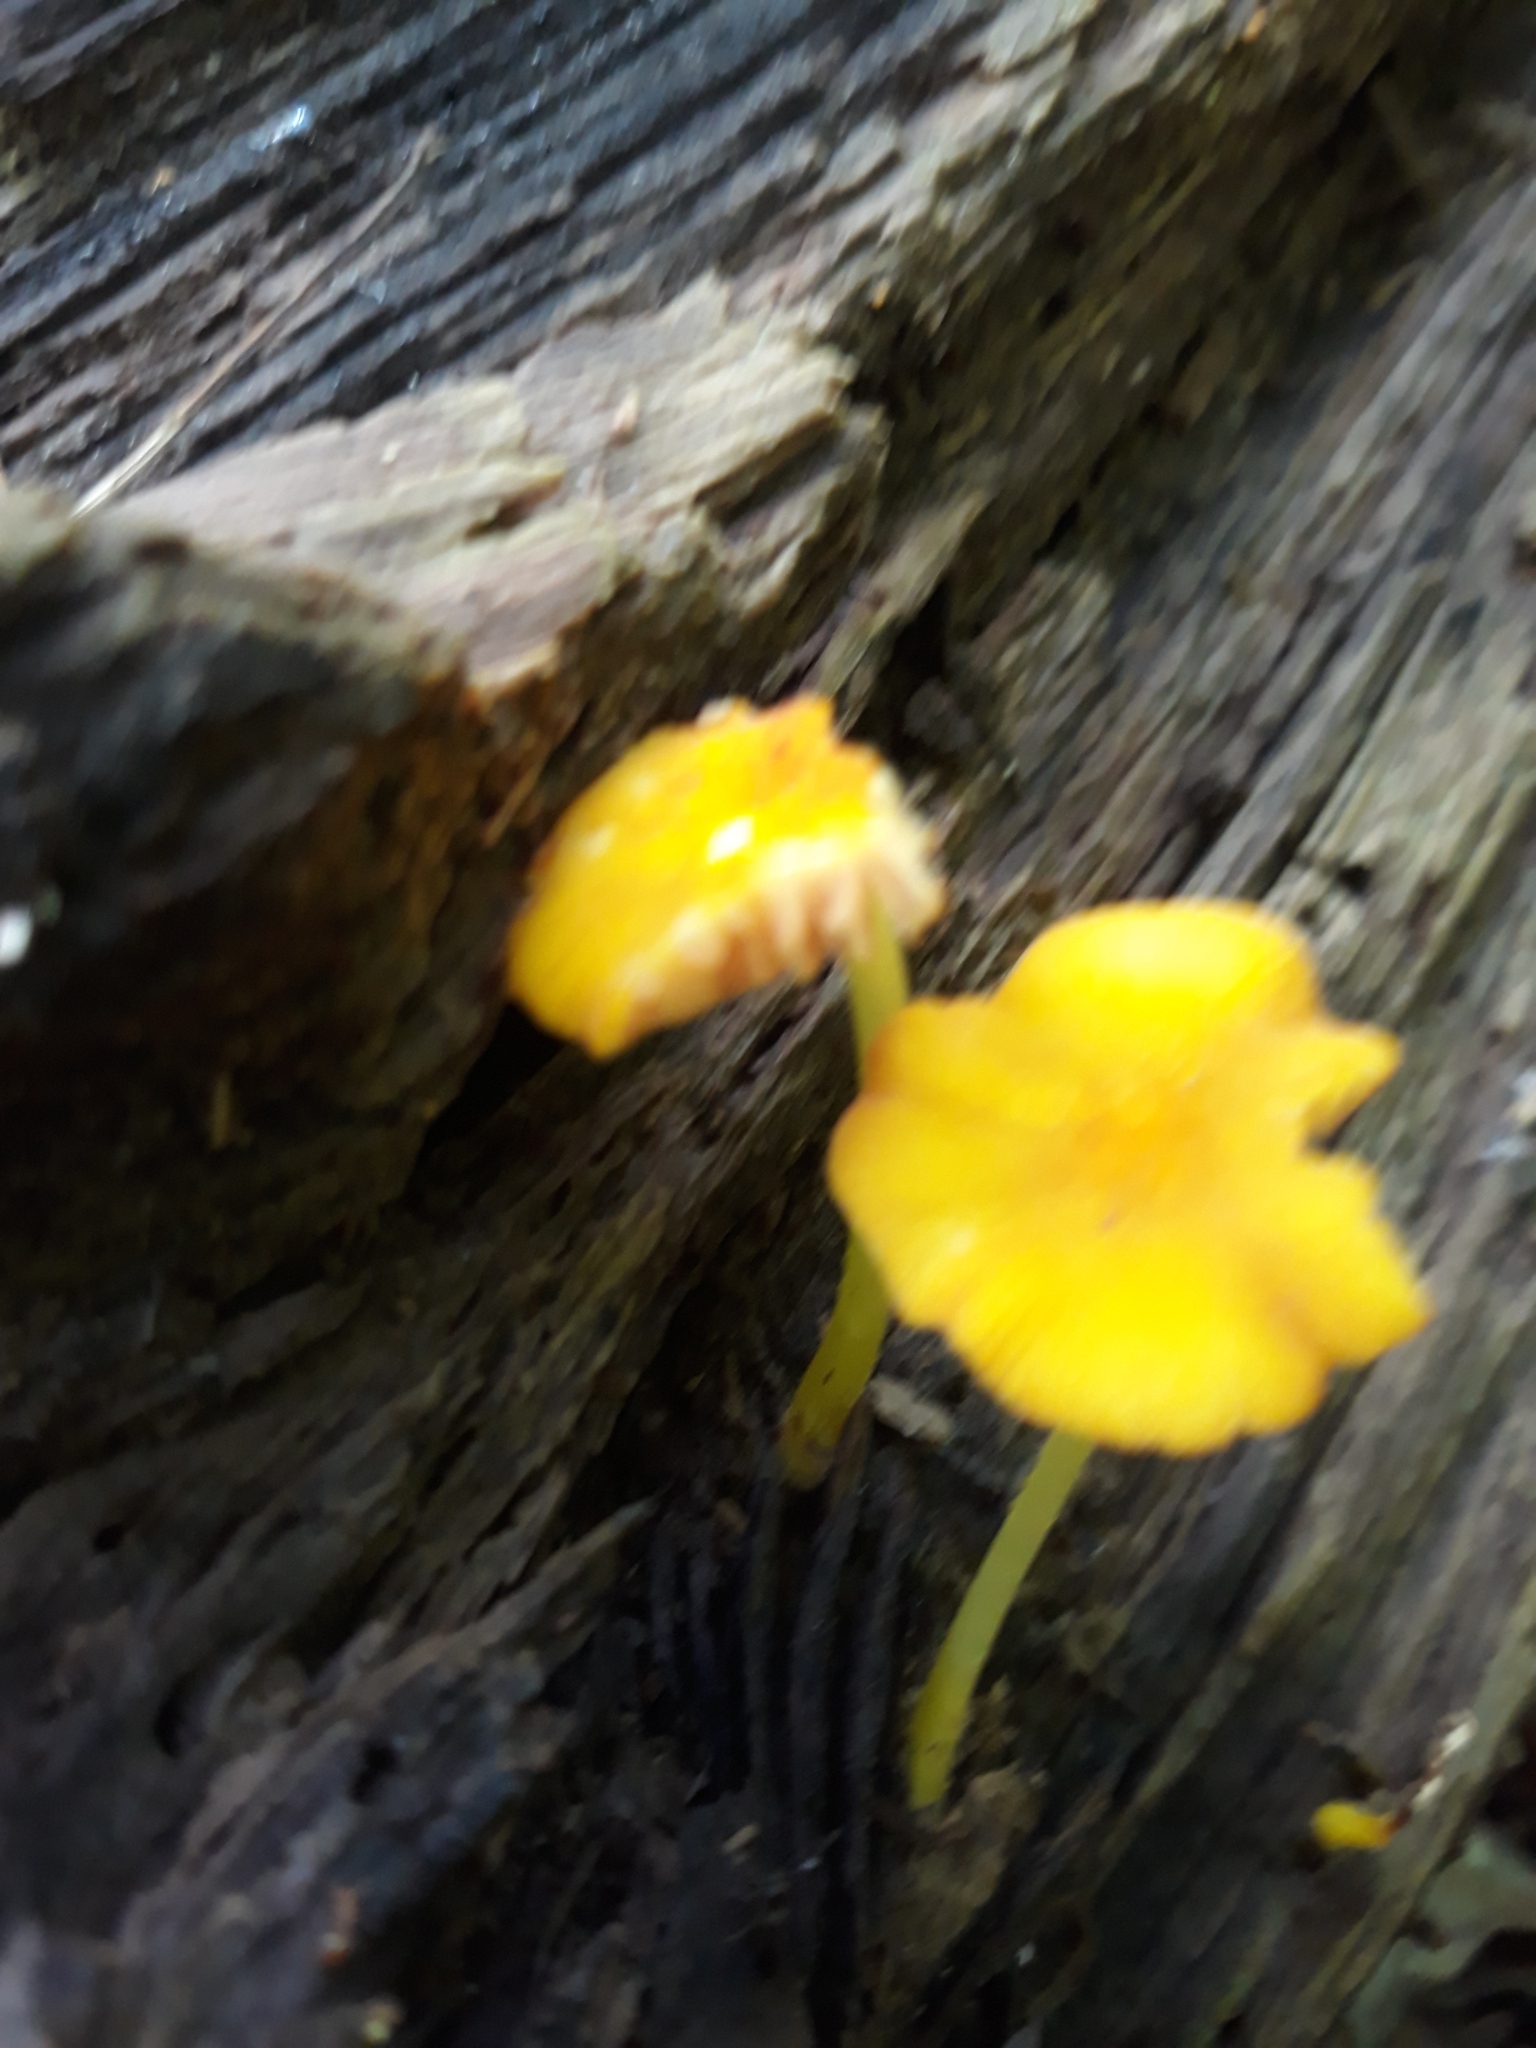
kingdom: Fungi
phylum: Basidiomycota
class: Agaricomycetes
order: Agaricales
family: Pluteaceae
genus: Pluteus
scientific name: Pluteus chrysophlebius
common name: Yellow deer mushroom
